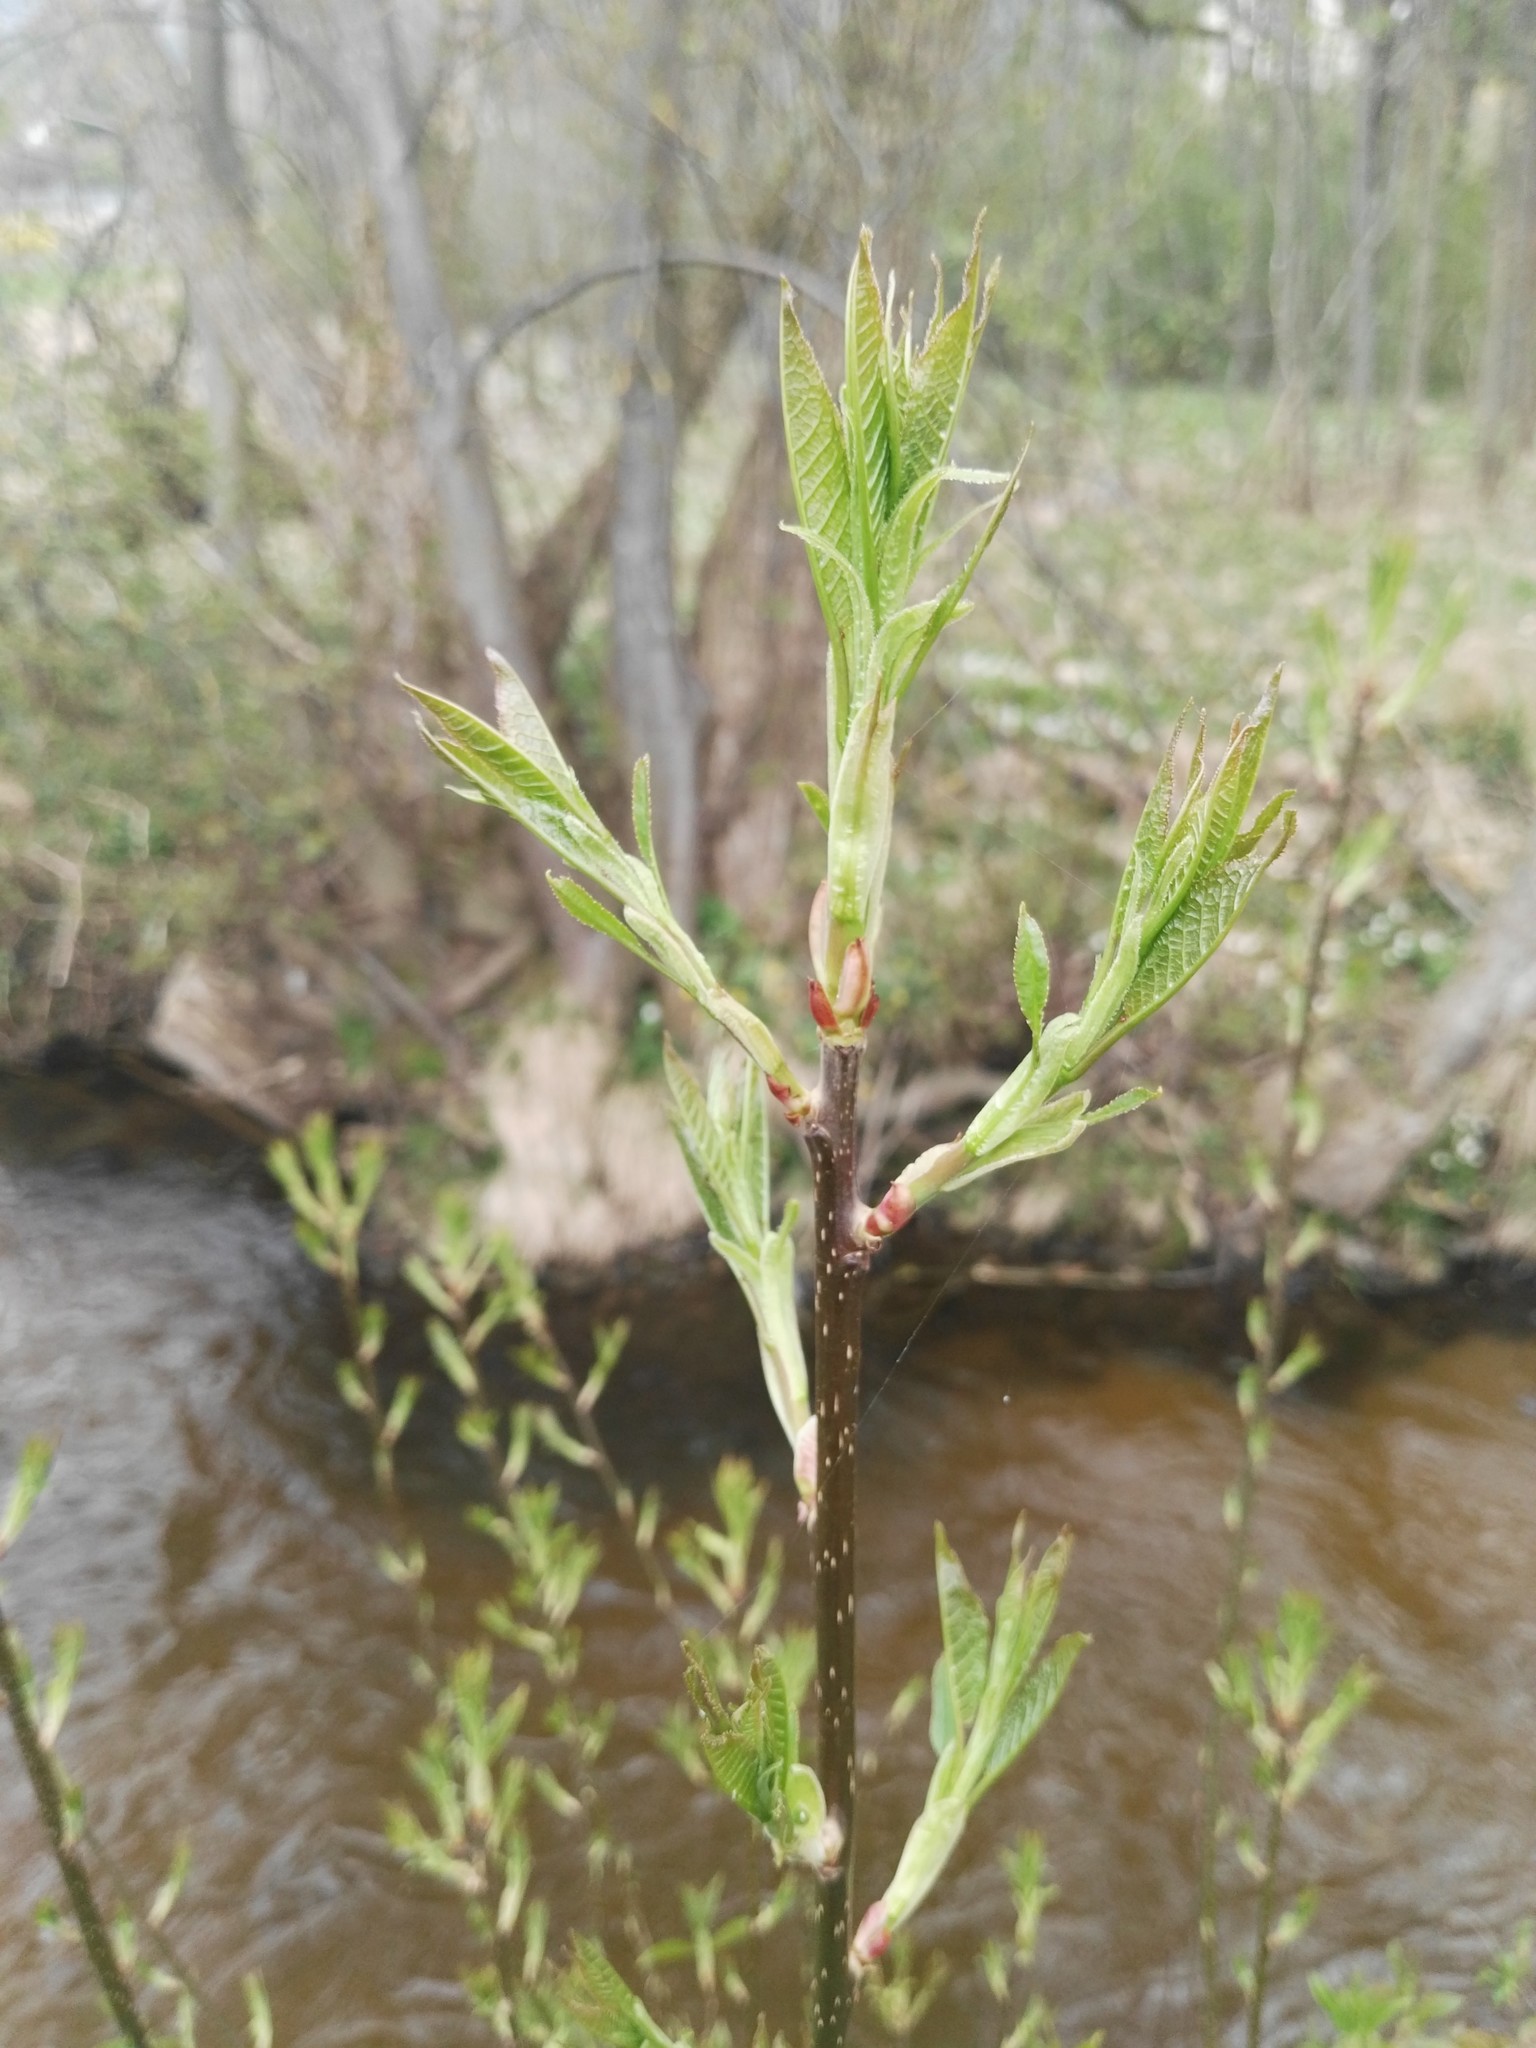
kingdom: Plantae
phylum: Tracheophyta
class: Magnoliopsida
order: Rosales
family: Rosaceae
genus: Prunus
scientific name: Prunus padus
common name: Bird cherry
